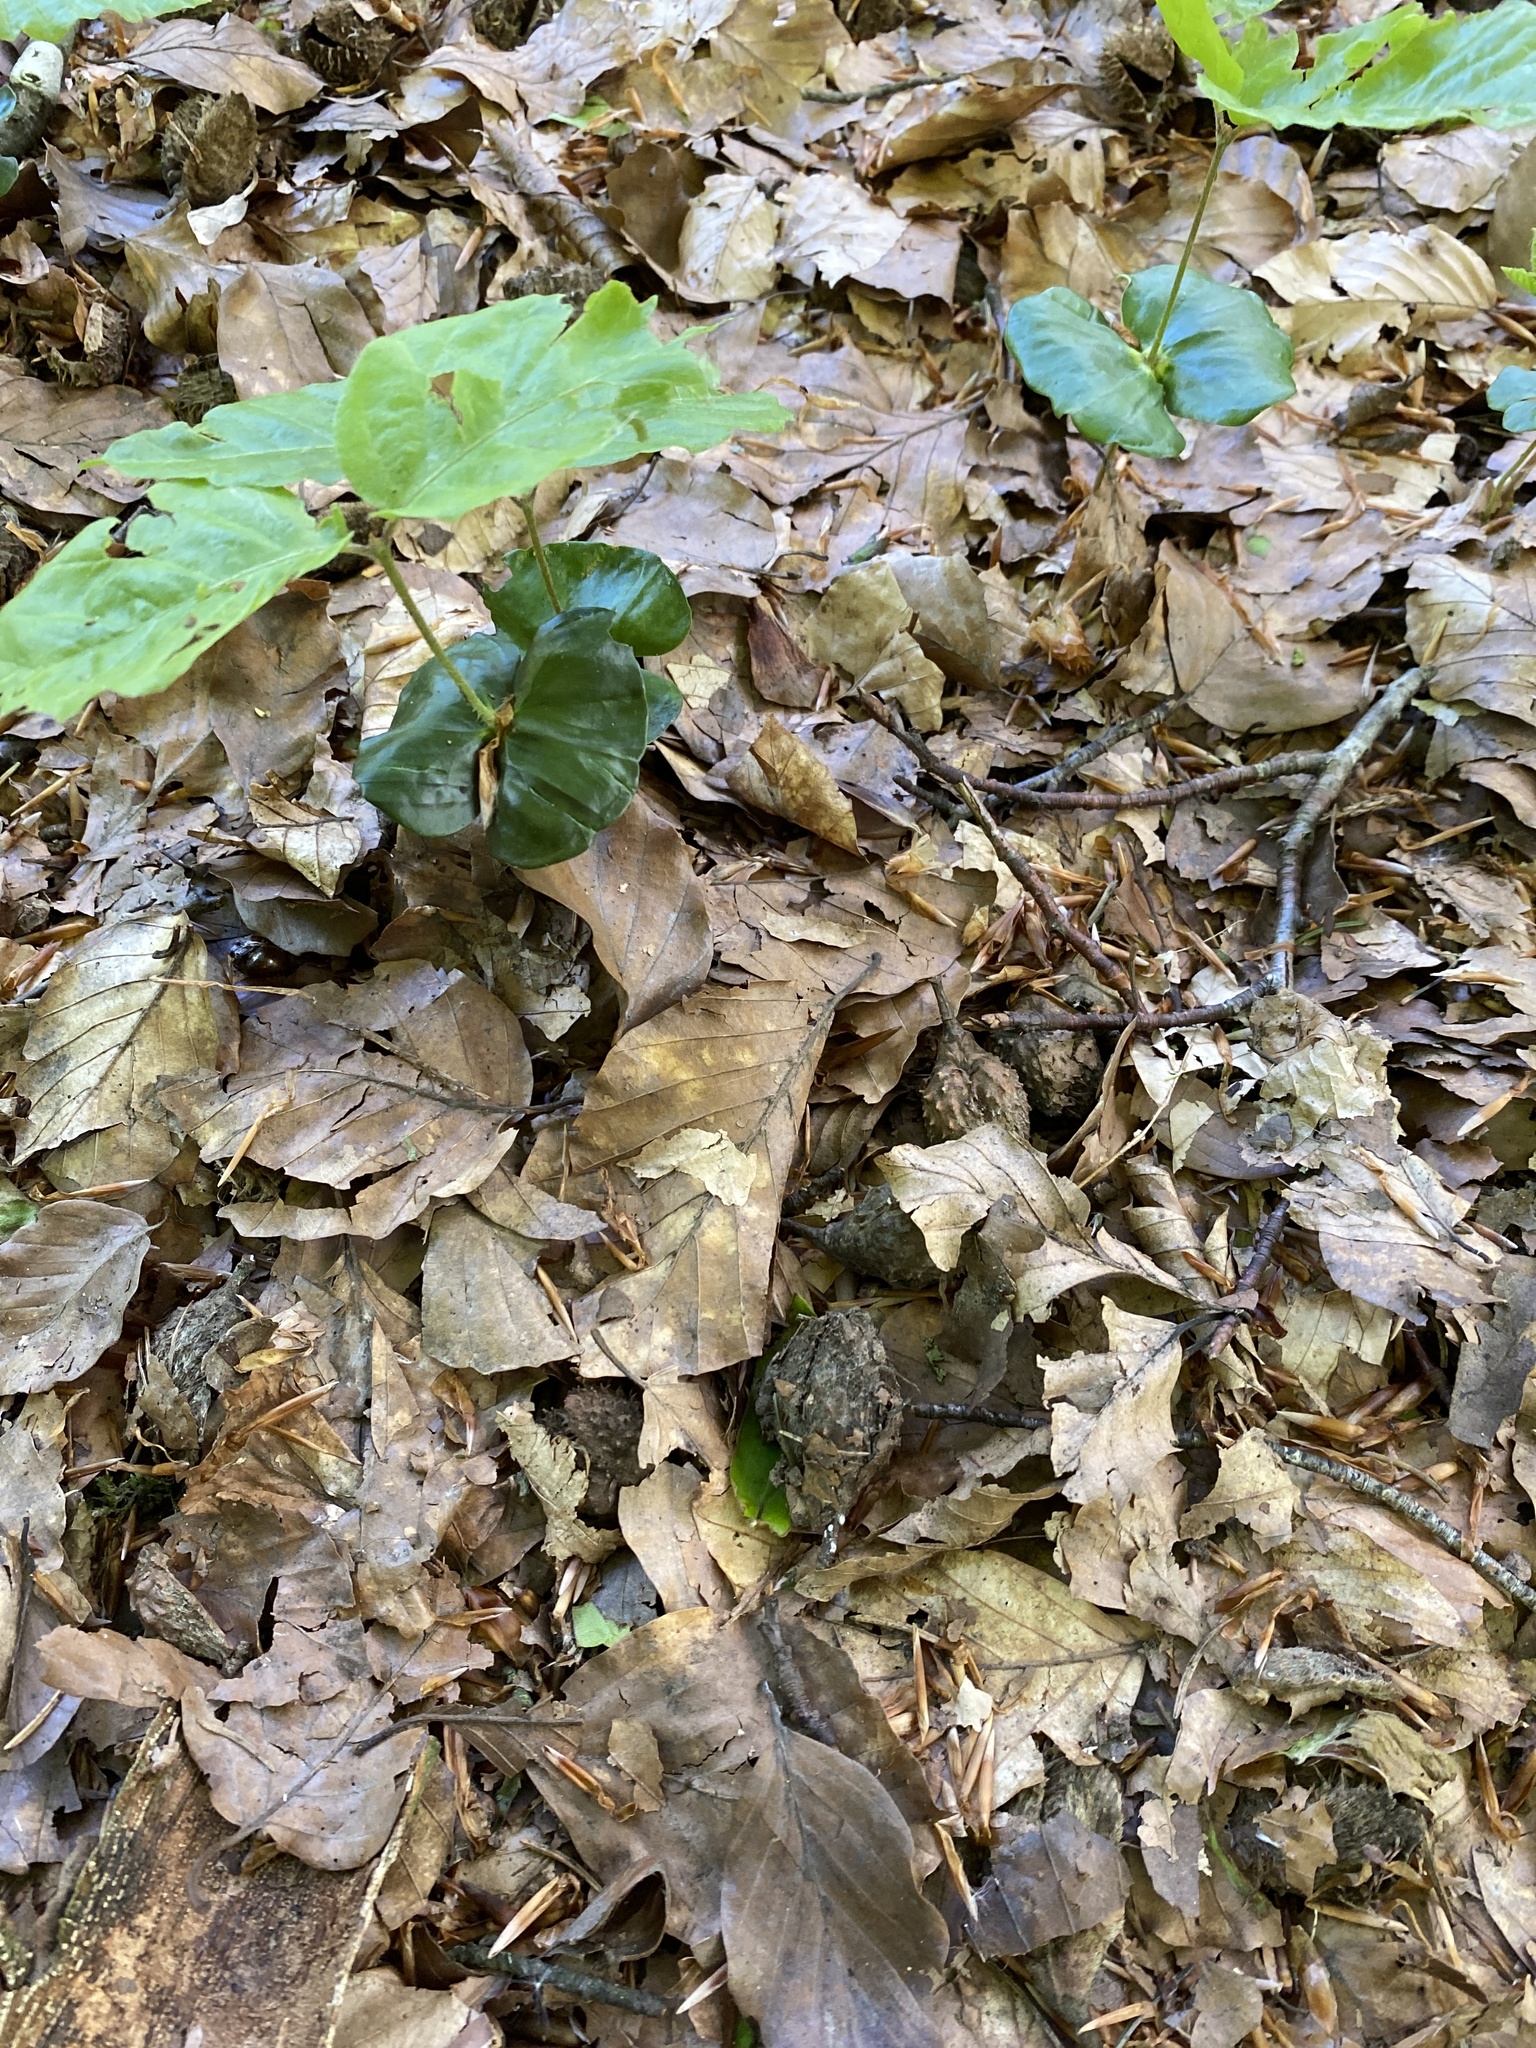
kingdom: Plantae
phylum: Tracheophyta
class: Magnoliopsida
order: Fagales
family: Fagaceae
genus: Fagus
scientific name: Fagus sylvatica
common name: Beech
